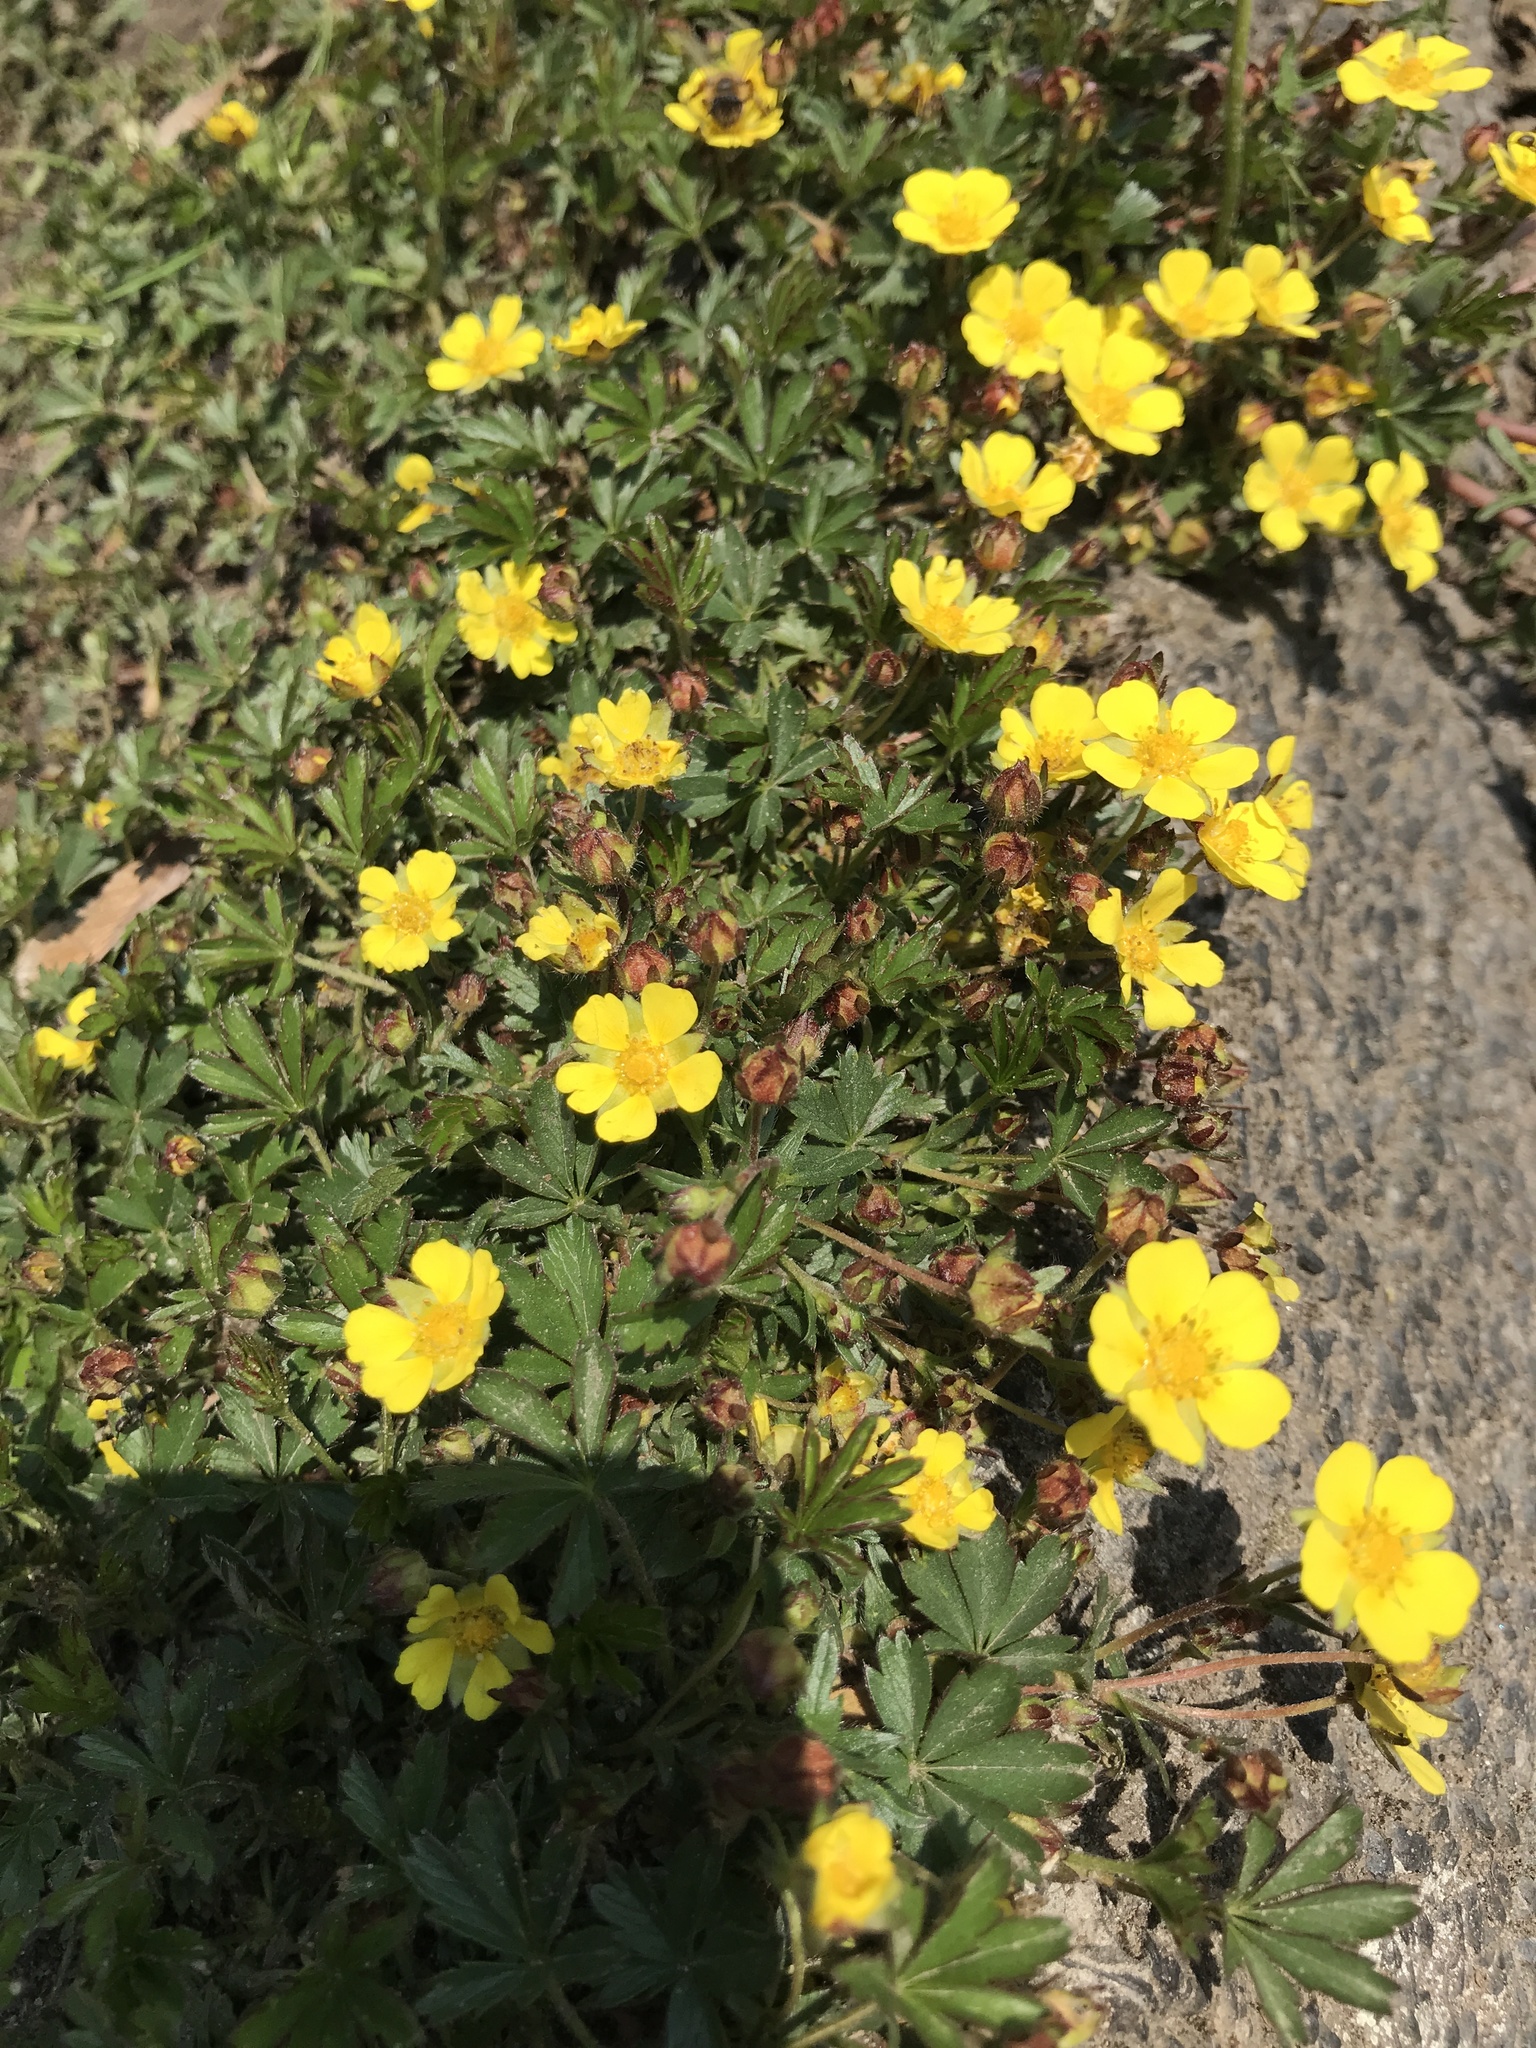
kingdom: Plantae
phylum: Tracheophyta
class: Magnoliopsida
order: Rosales
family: Rosaceae
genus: Potentilla
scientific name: Potentilla verna
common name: Spring cinquefoil
